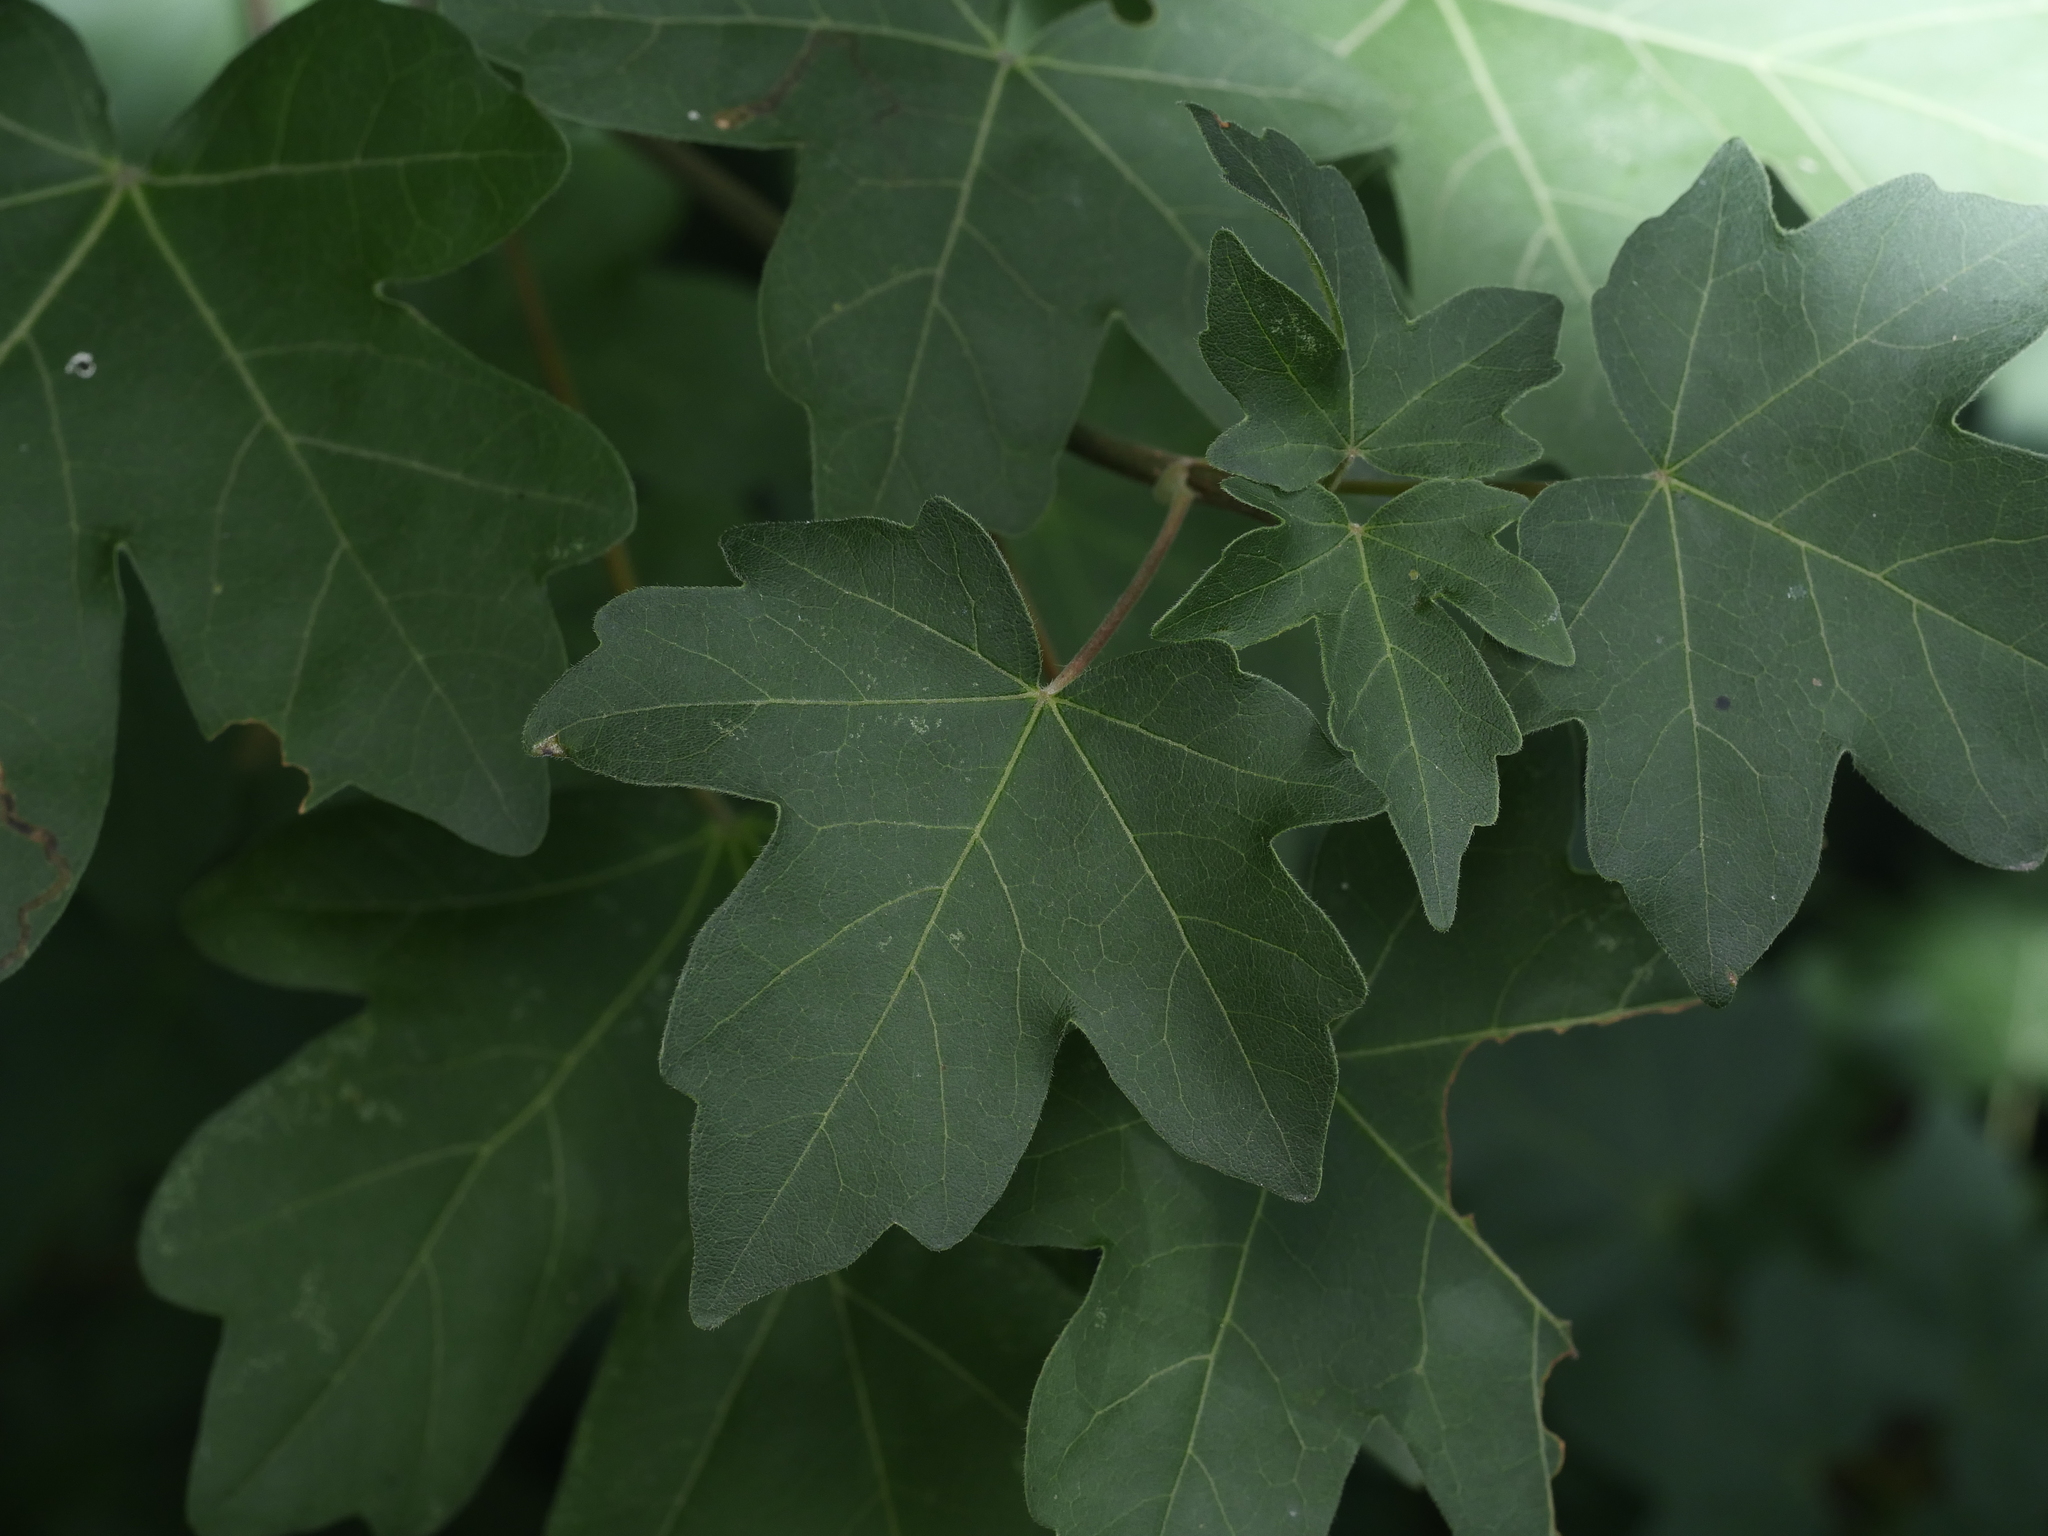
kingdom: Plantae
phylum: Tracheophyta
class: Magnoliopsida
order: Sapindales
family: Sapindaceae
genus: Acer
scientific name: Acer campestre
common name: Field maple
